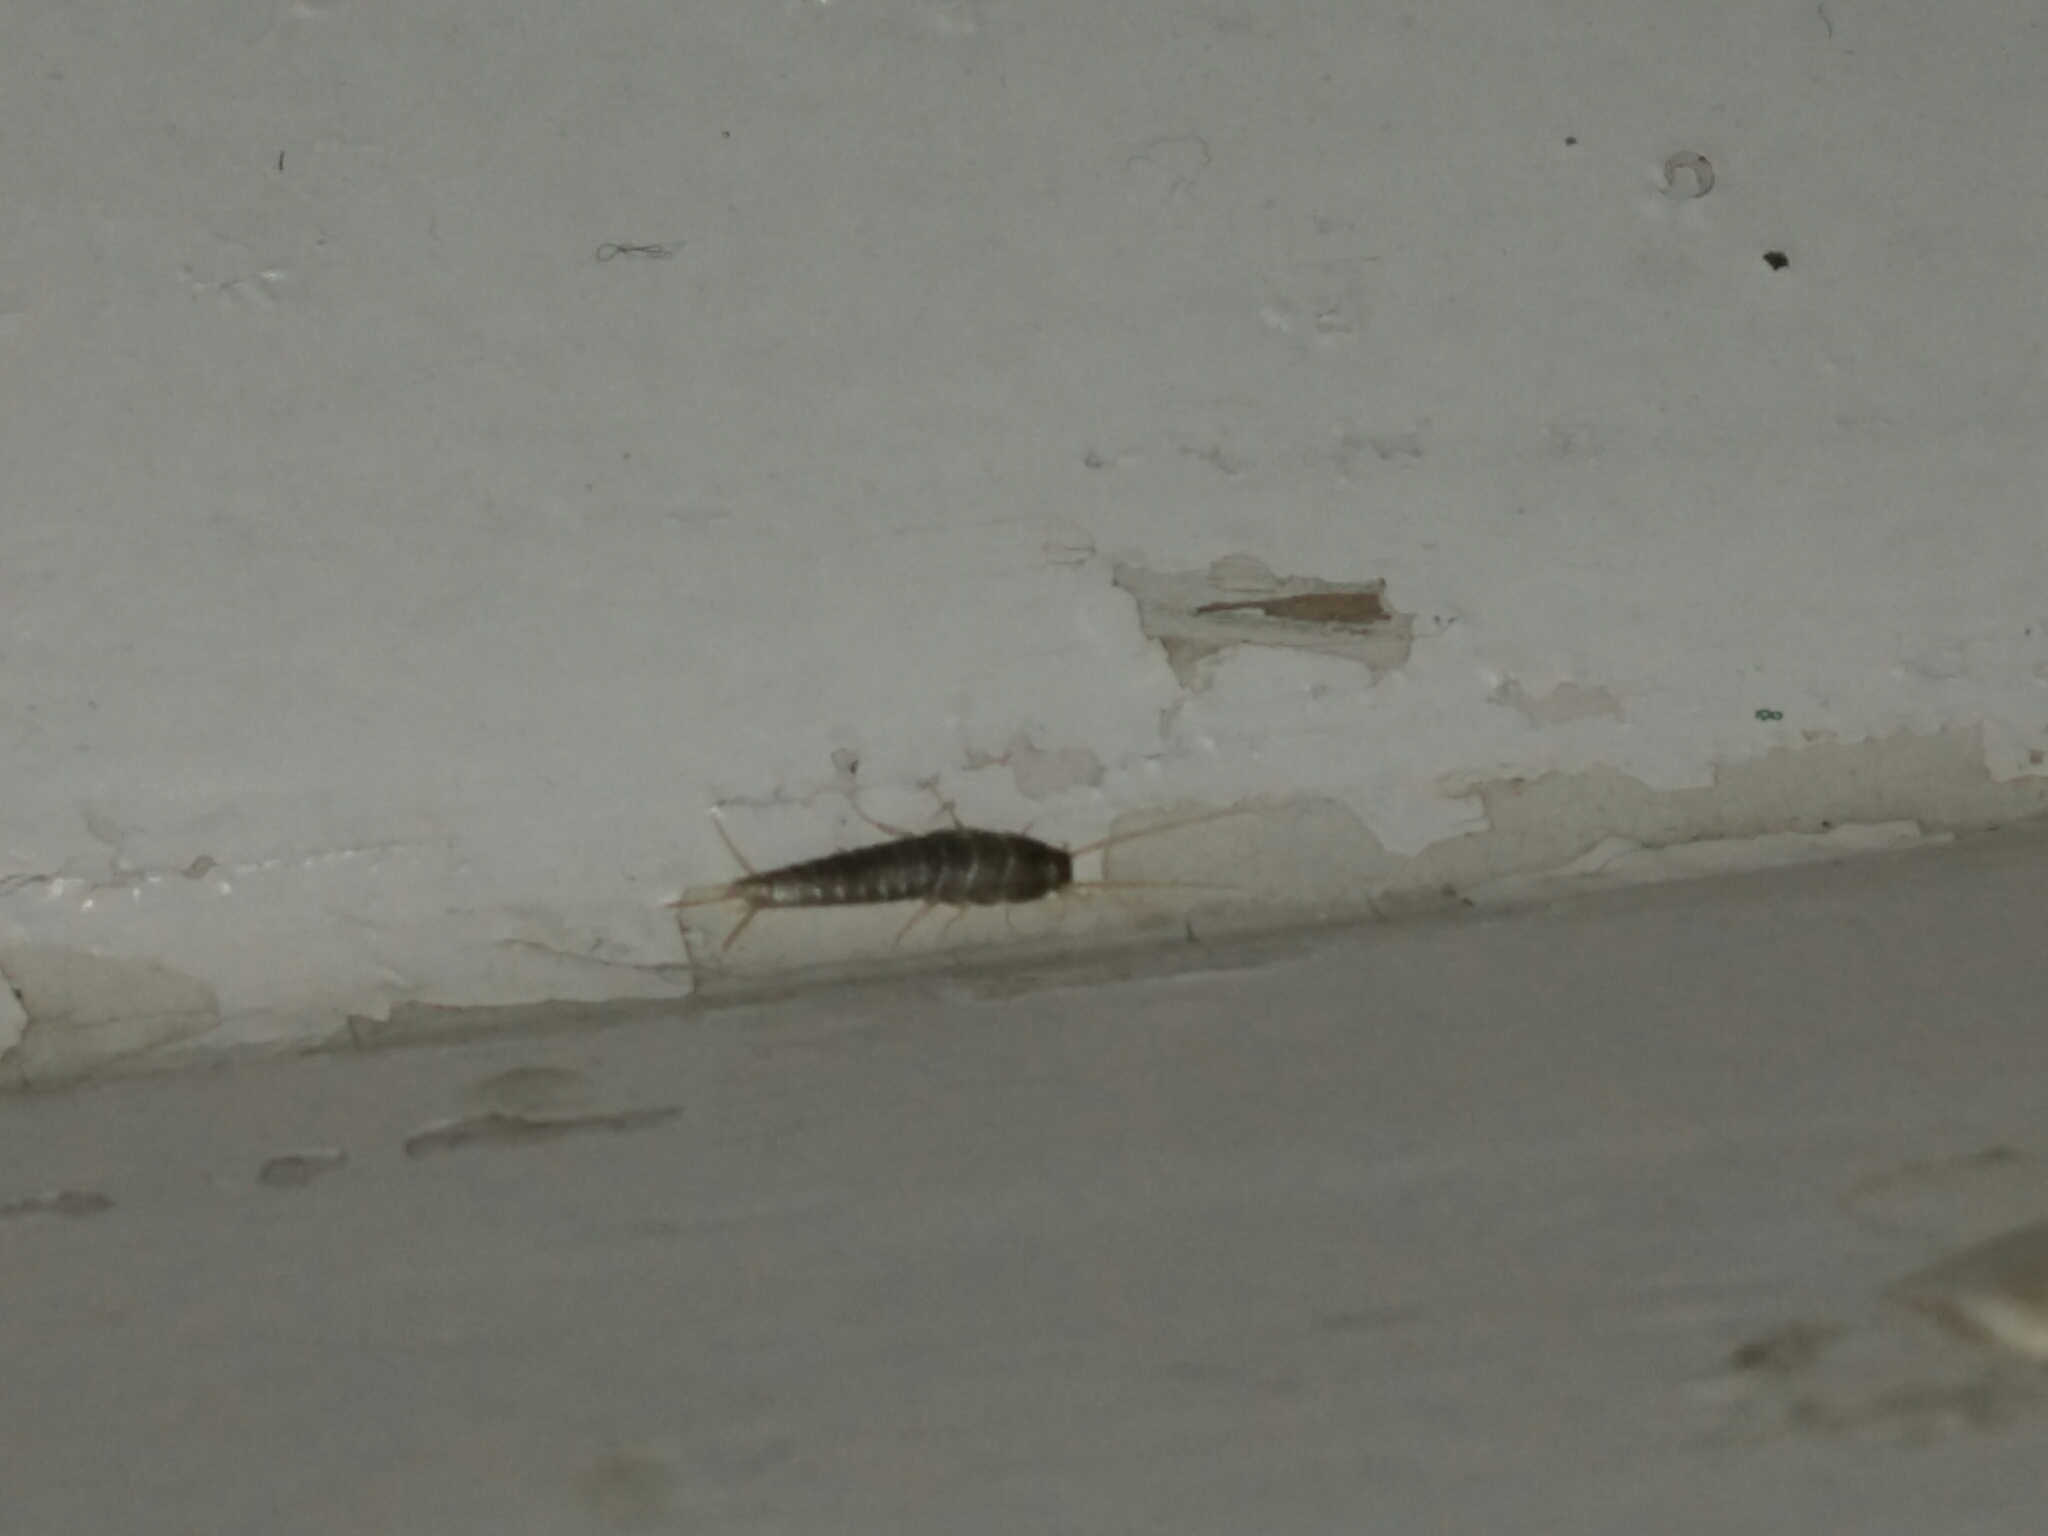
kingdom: Animalia
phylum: Arthropoda
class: Insecta
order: Zygentoma
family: Lepismatidae
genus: Lepisma
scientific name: Lepisma saccharinum
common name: Silverfish
